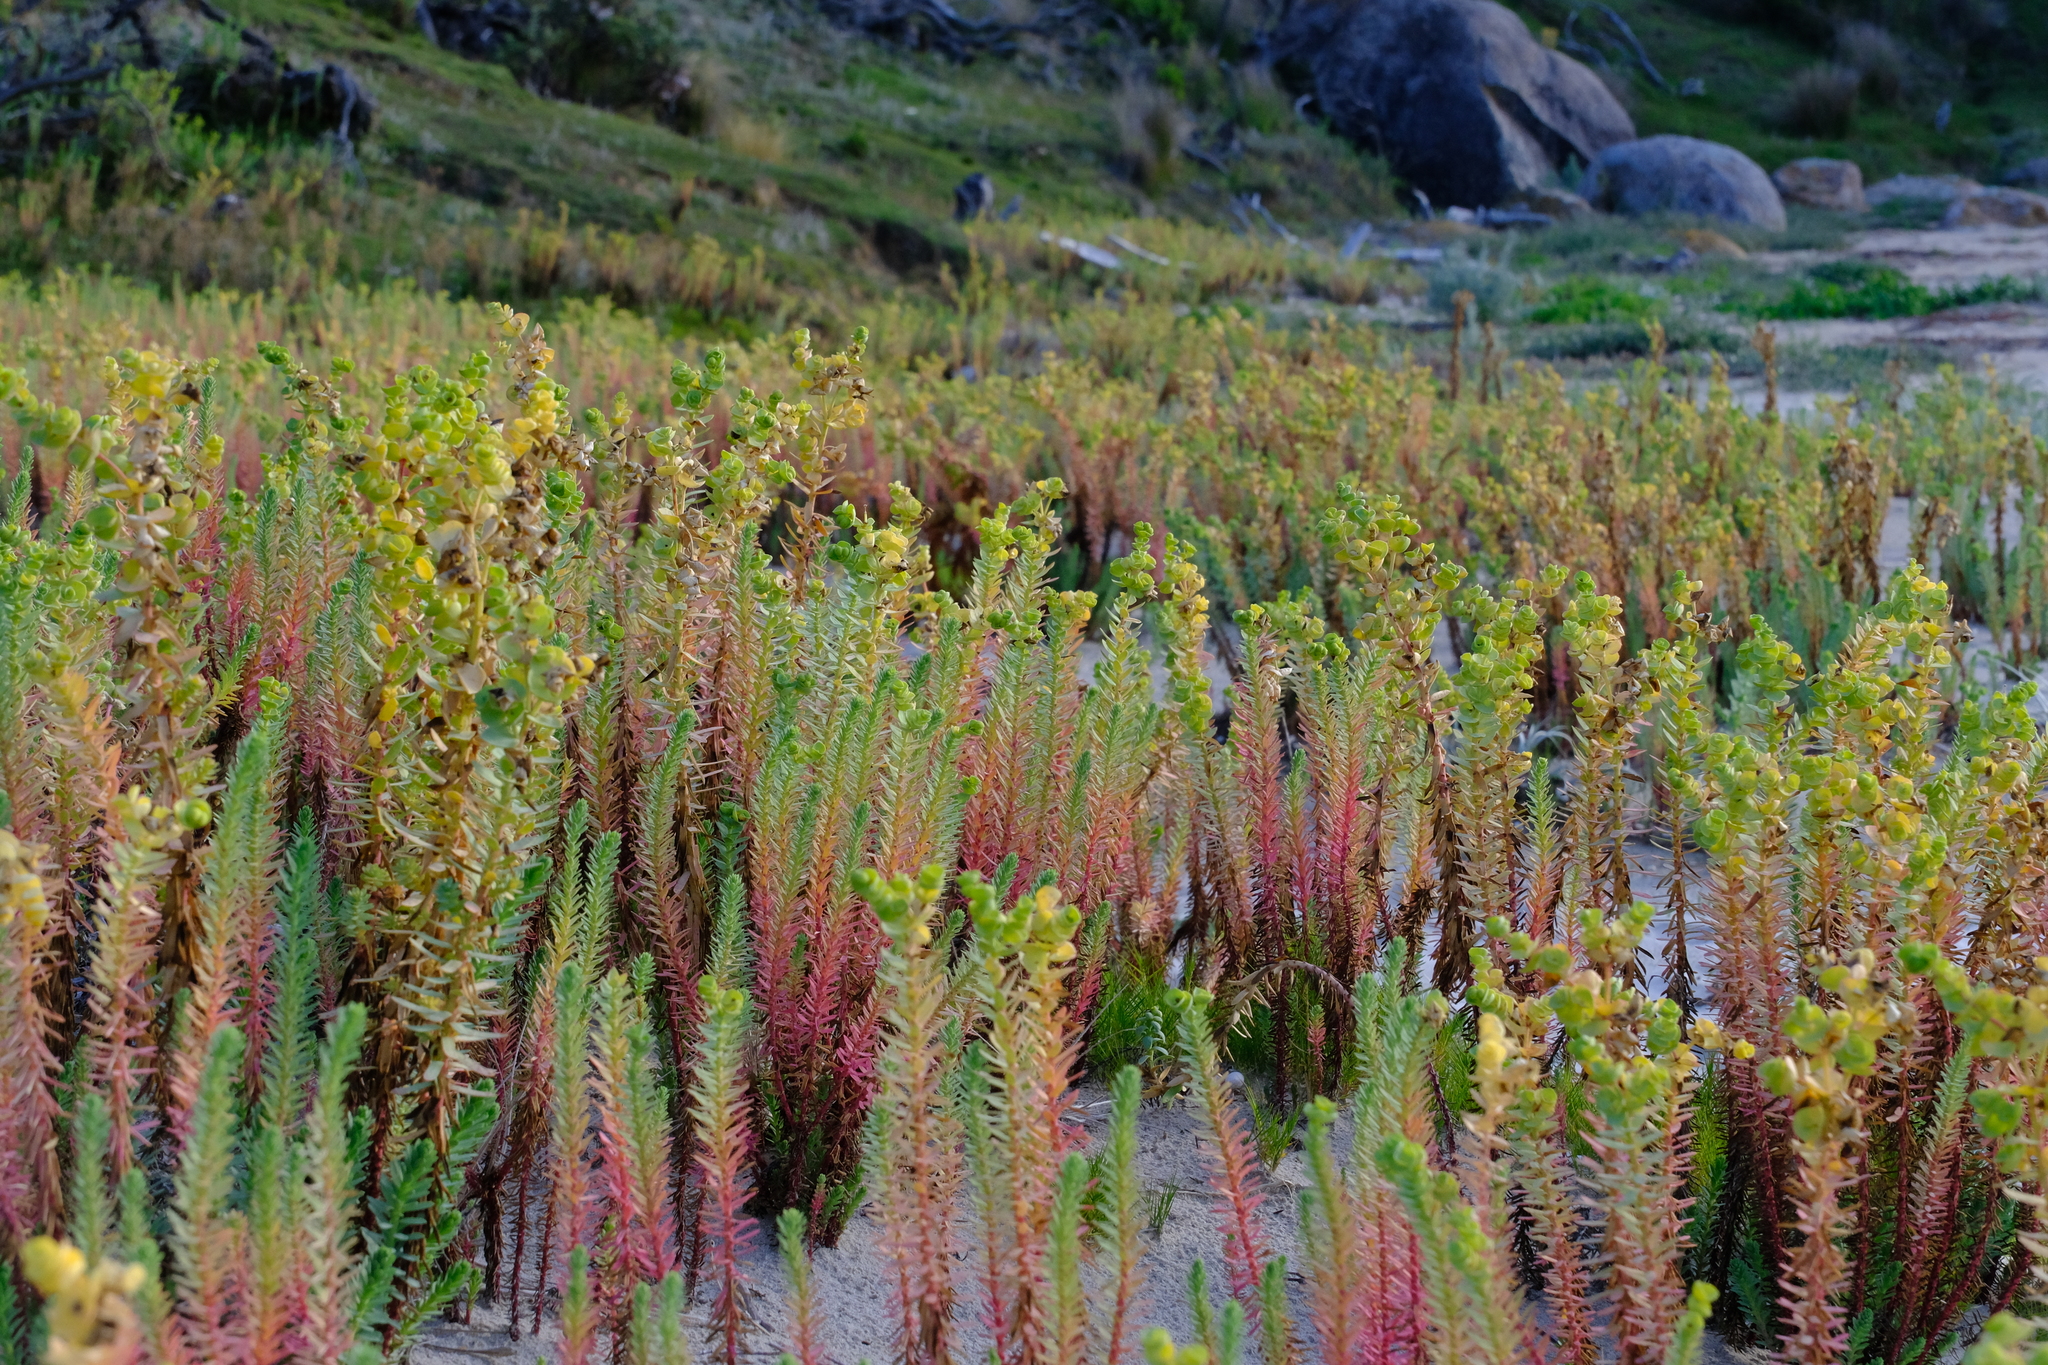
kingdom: Plantae
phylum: Tracheophyta
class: Magnoliopsida
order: Malpighiales
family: Euphorbiaceae
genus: Euphorbia
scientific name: Euphorbia paralias
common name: Sea spurge
